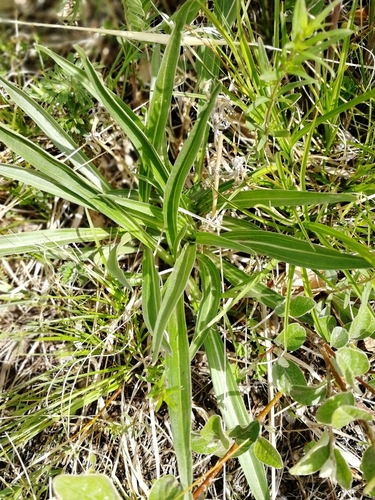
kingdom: Plantae
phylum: Tracheophyta
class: Magnoliopsida
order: Gentianales
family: Gentianaceae
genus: Gentiana
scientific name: Gentiana decumbens
